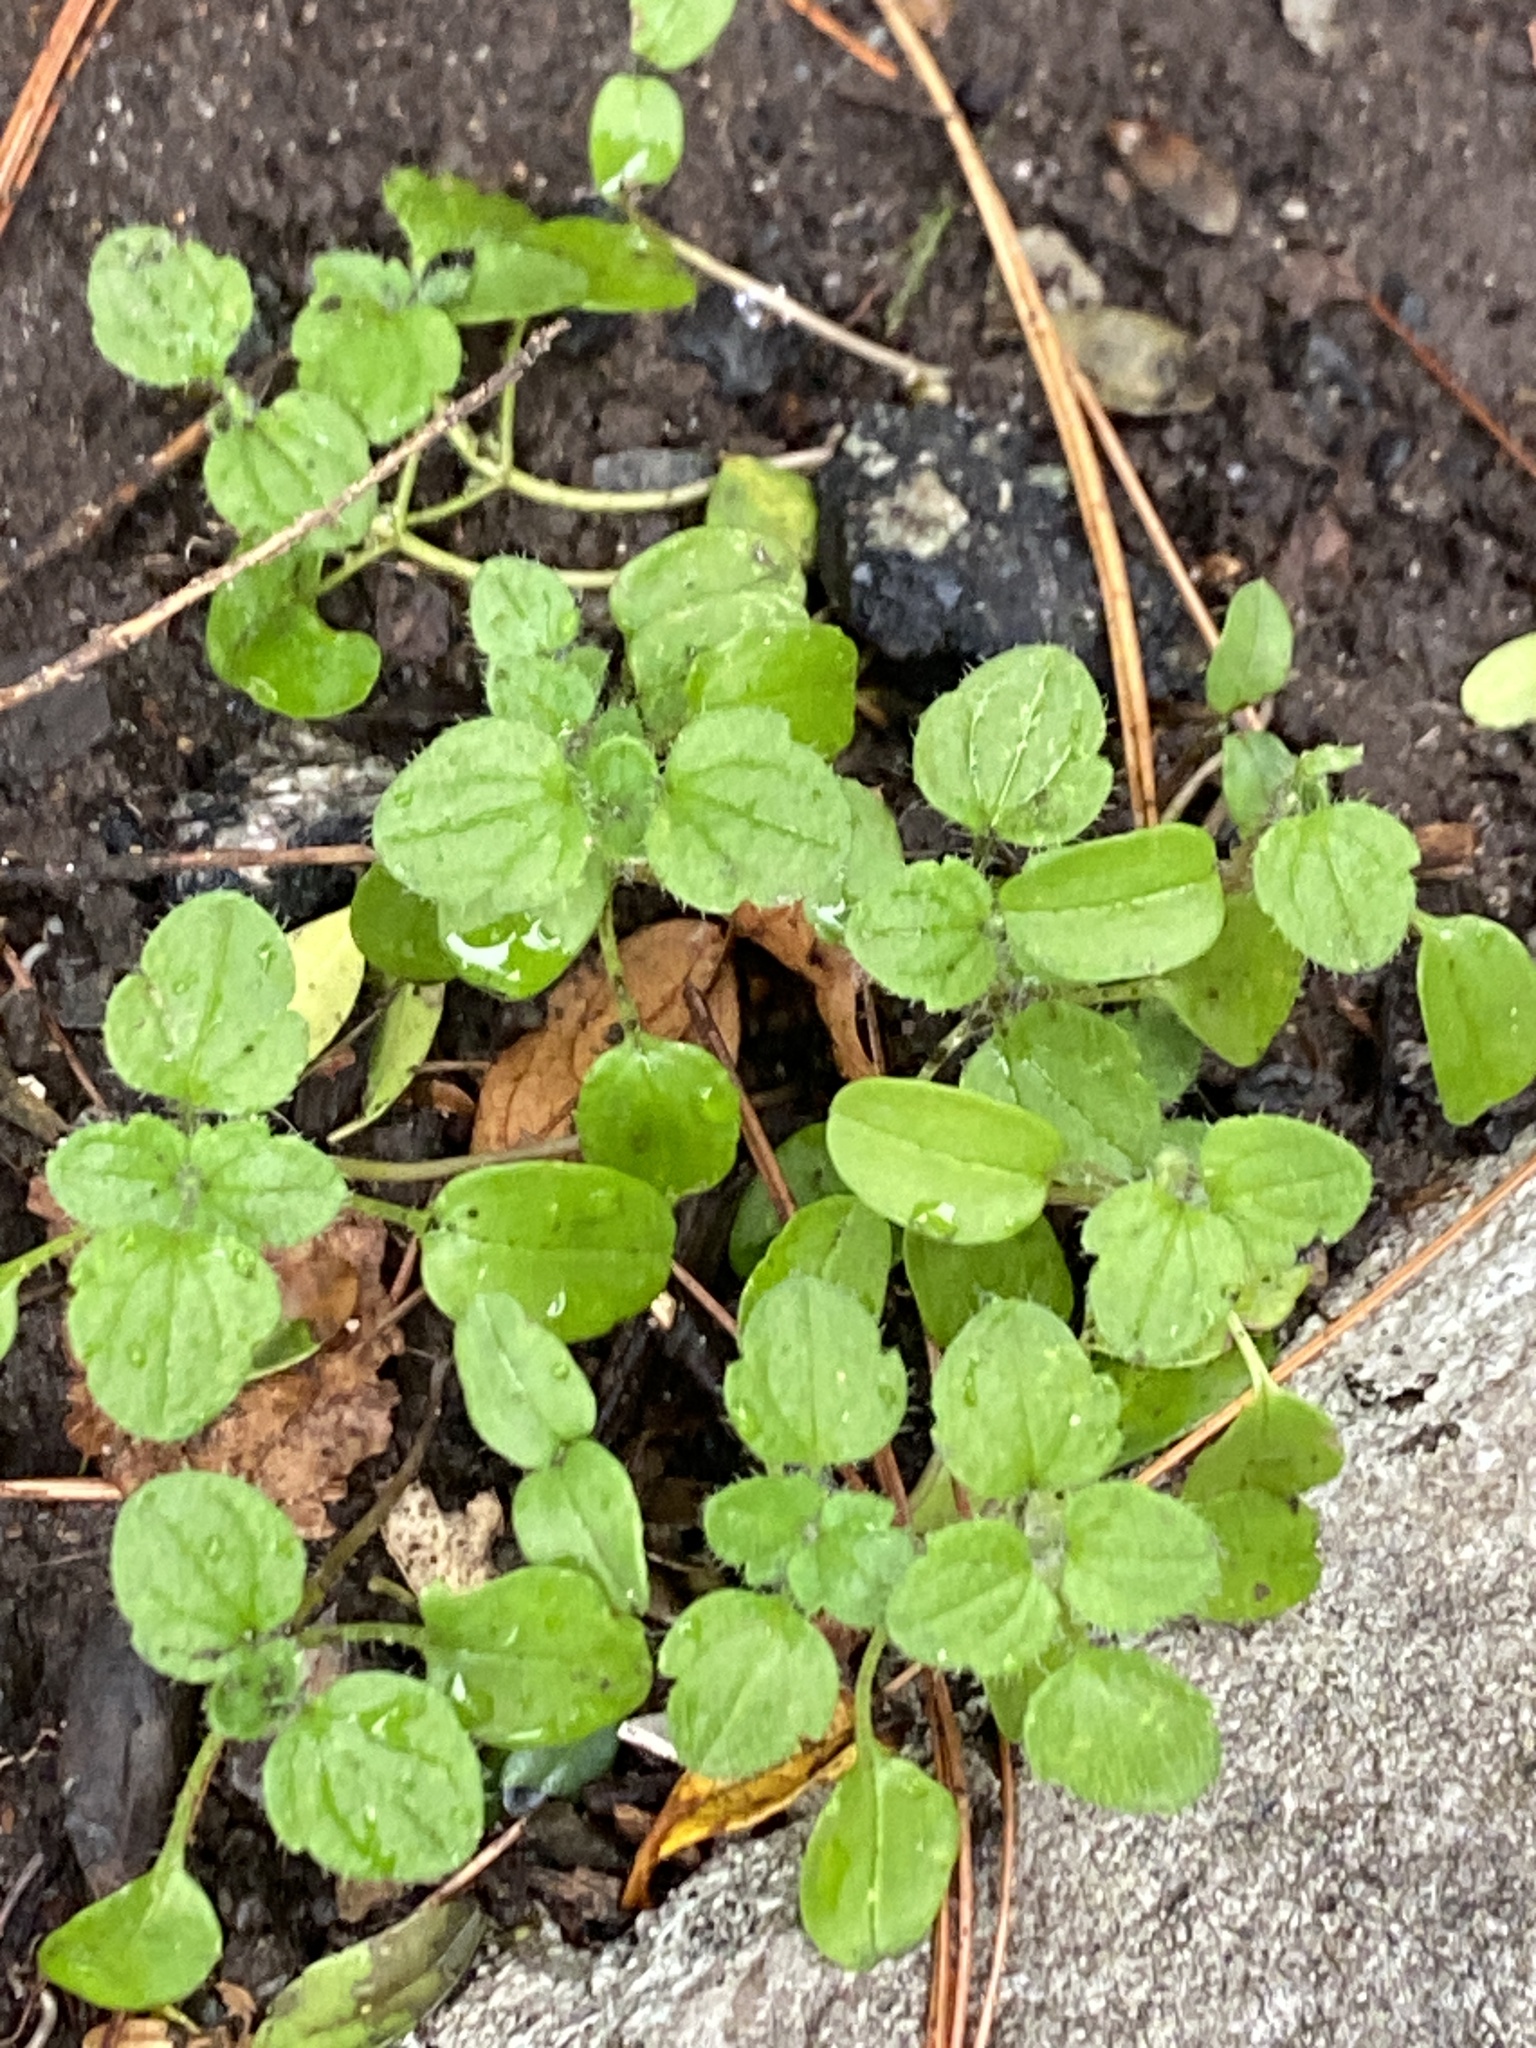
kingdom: Plantae
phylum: Tracheophyta
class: Magnoliopsida
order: Lamiales
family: Plantaginaceae
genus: Veronica
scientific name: Veronica hederifolia
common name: Ivy-leaved speedwell
